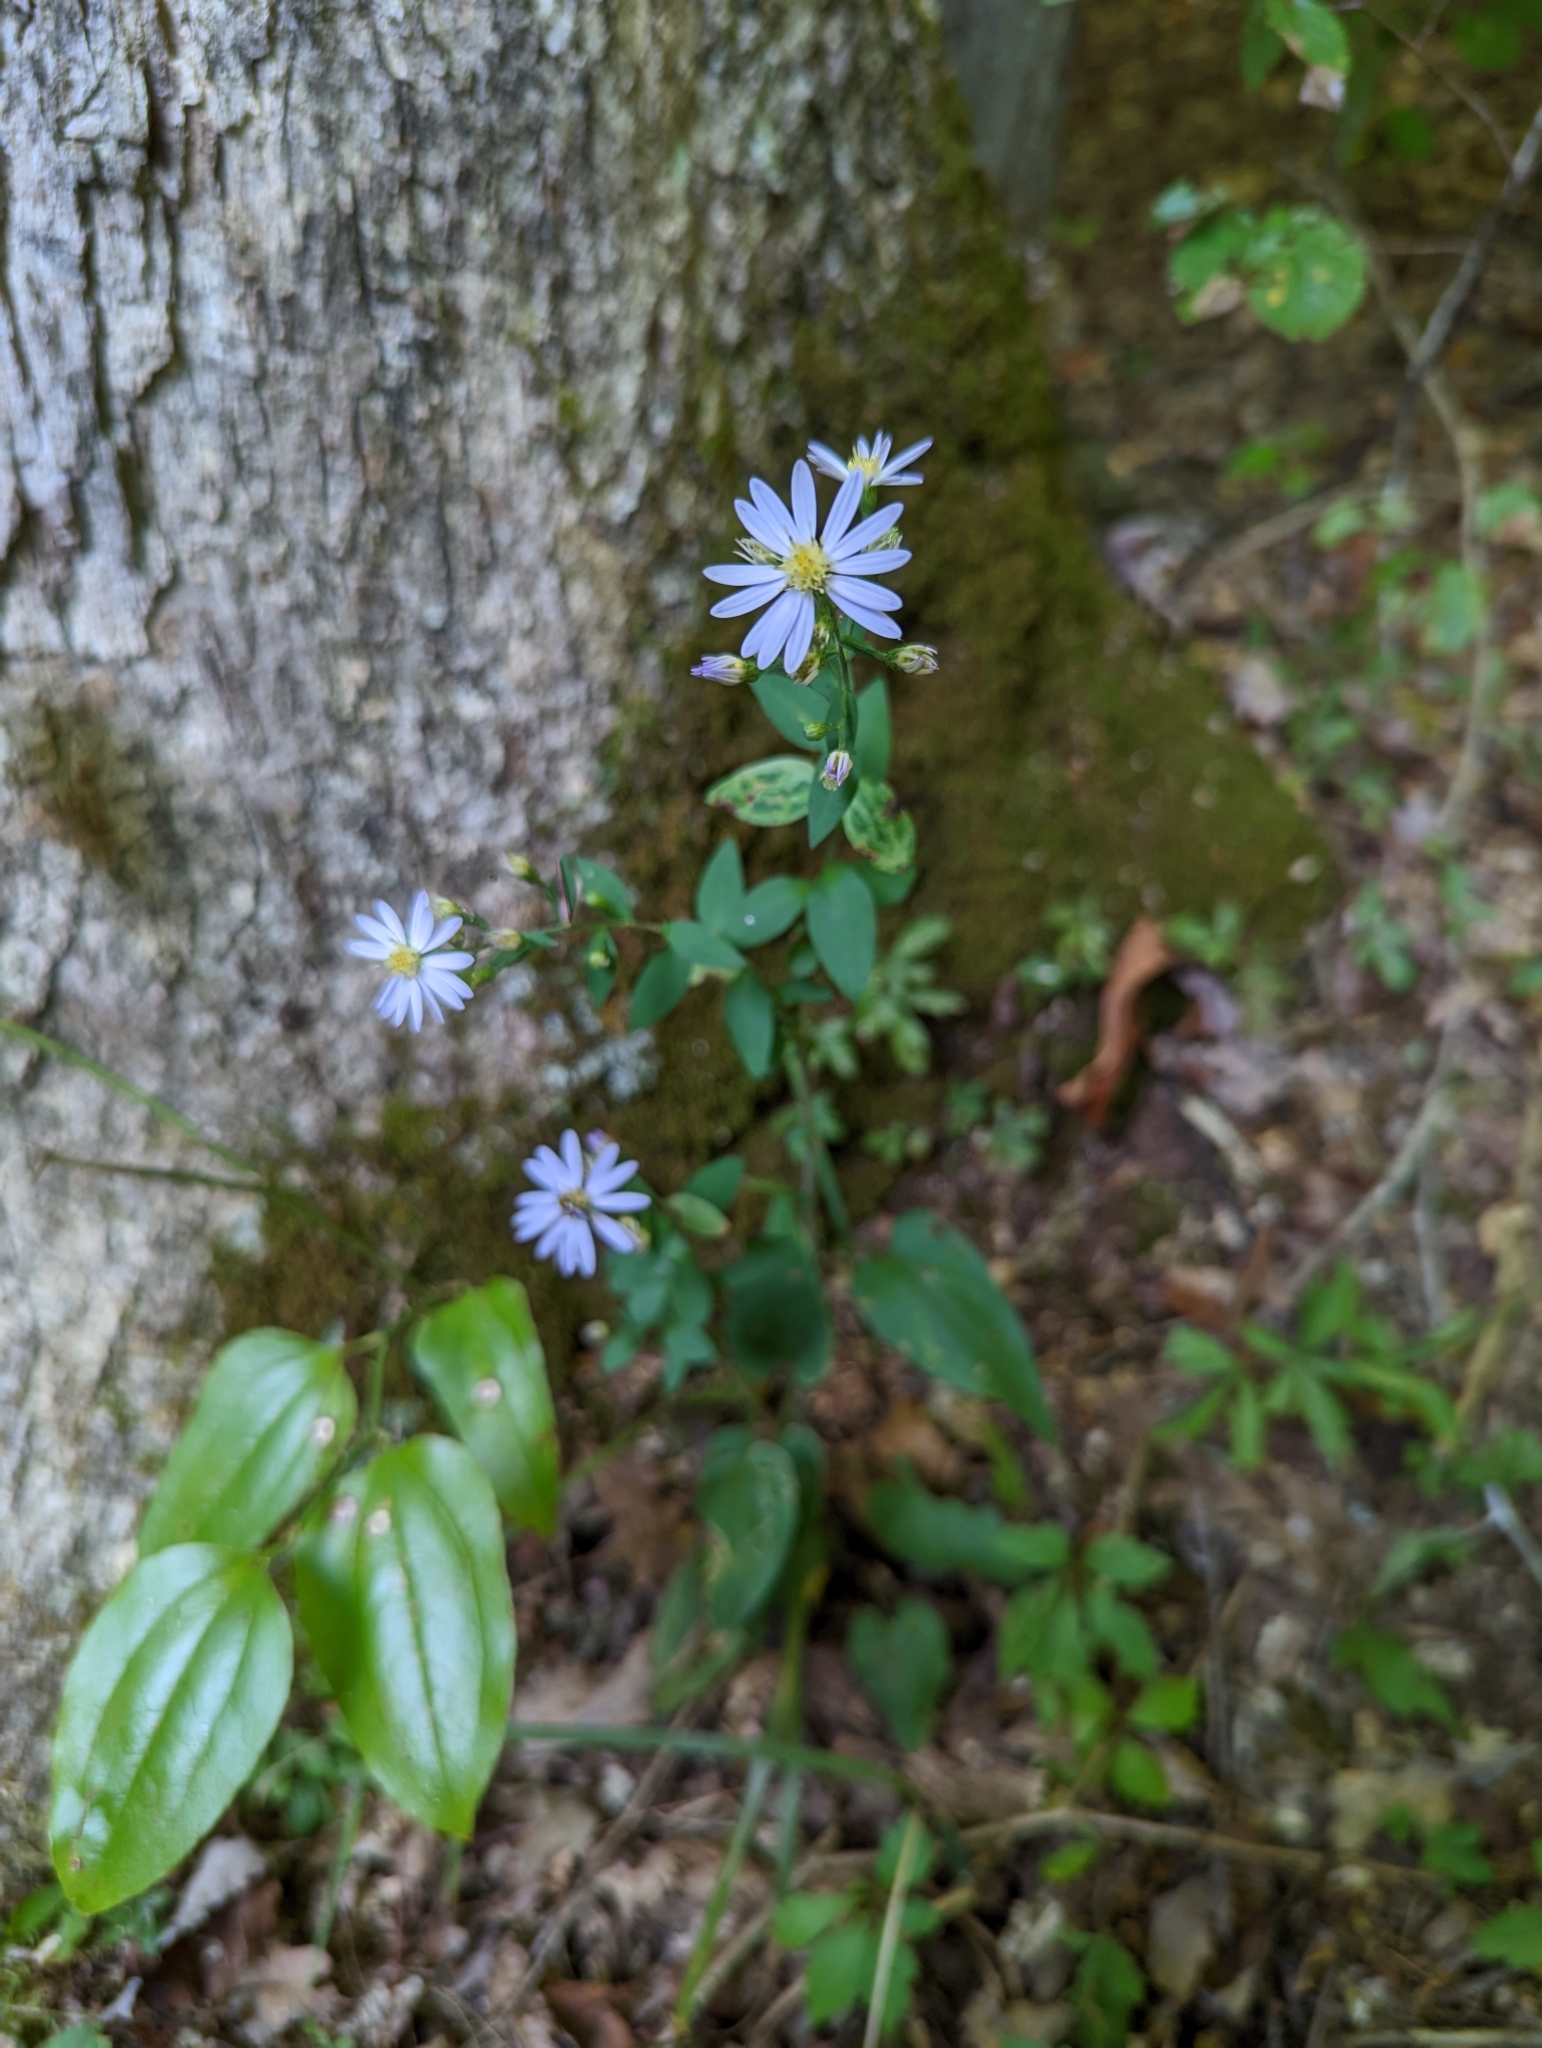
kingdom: Plantae
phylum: Tracheophyta
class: Magnoliopsida
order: Asterales
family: Asteraceae
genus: Symphyotrichum
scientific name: Symphyotrichum shortii
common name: Short's aster
